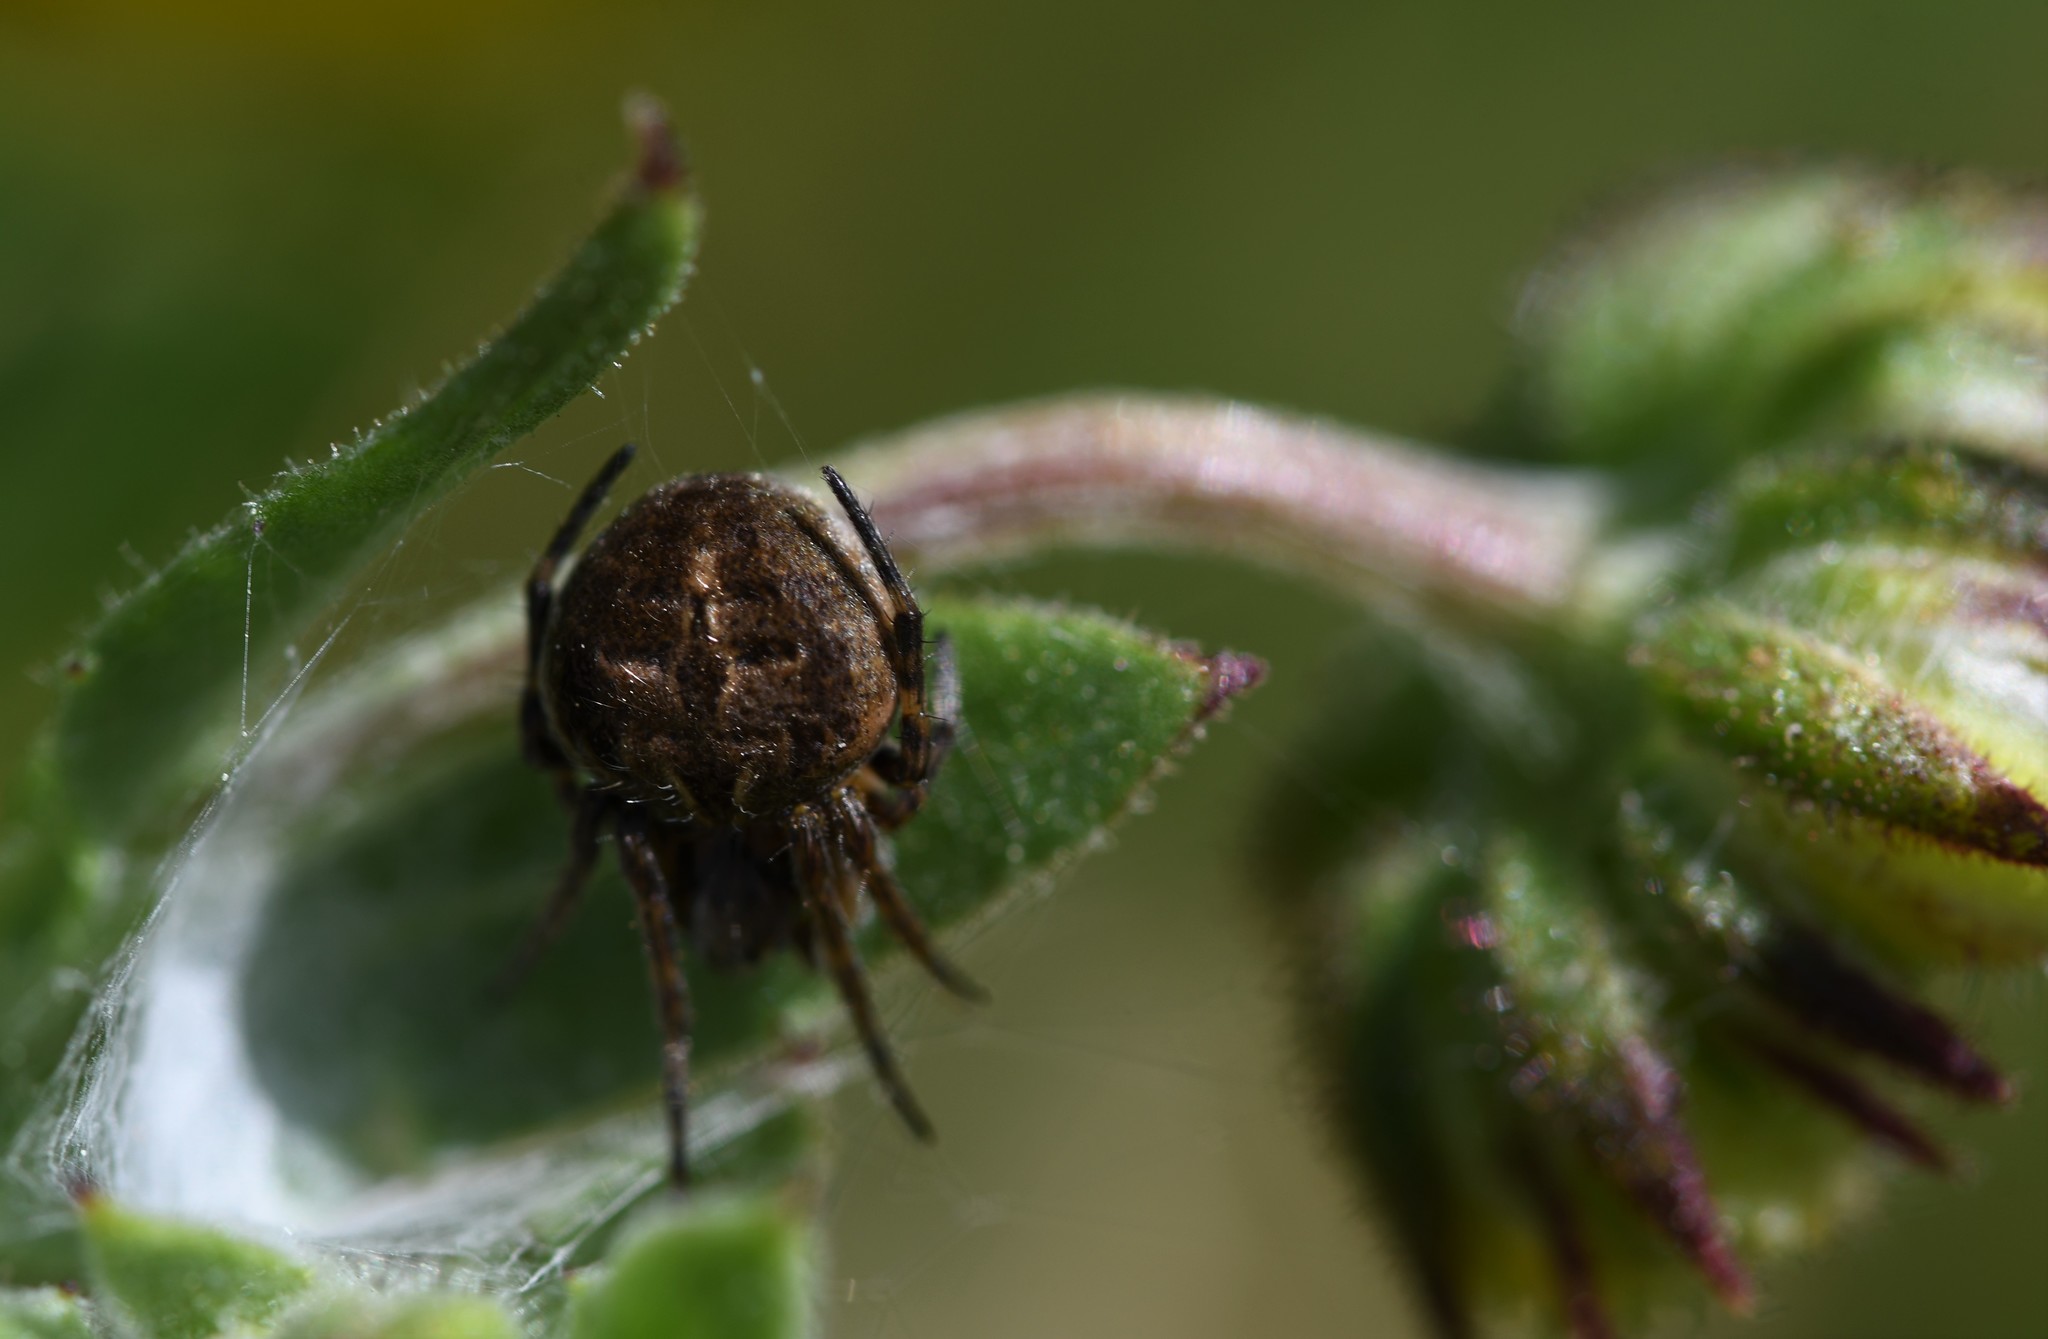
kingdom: Animalia
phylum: Arthropoda
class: Arachnida
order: Araneae
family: Araneidae
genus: Agalenatea
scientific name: Agalenatea redii
